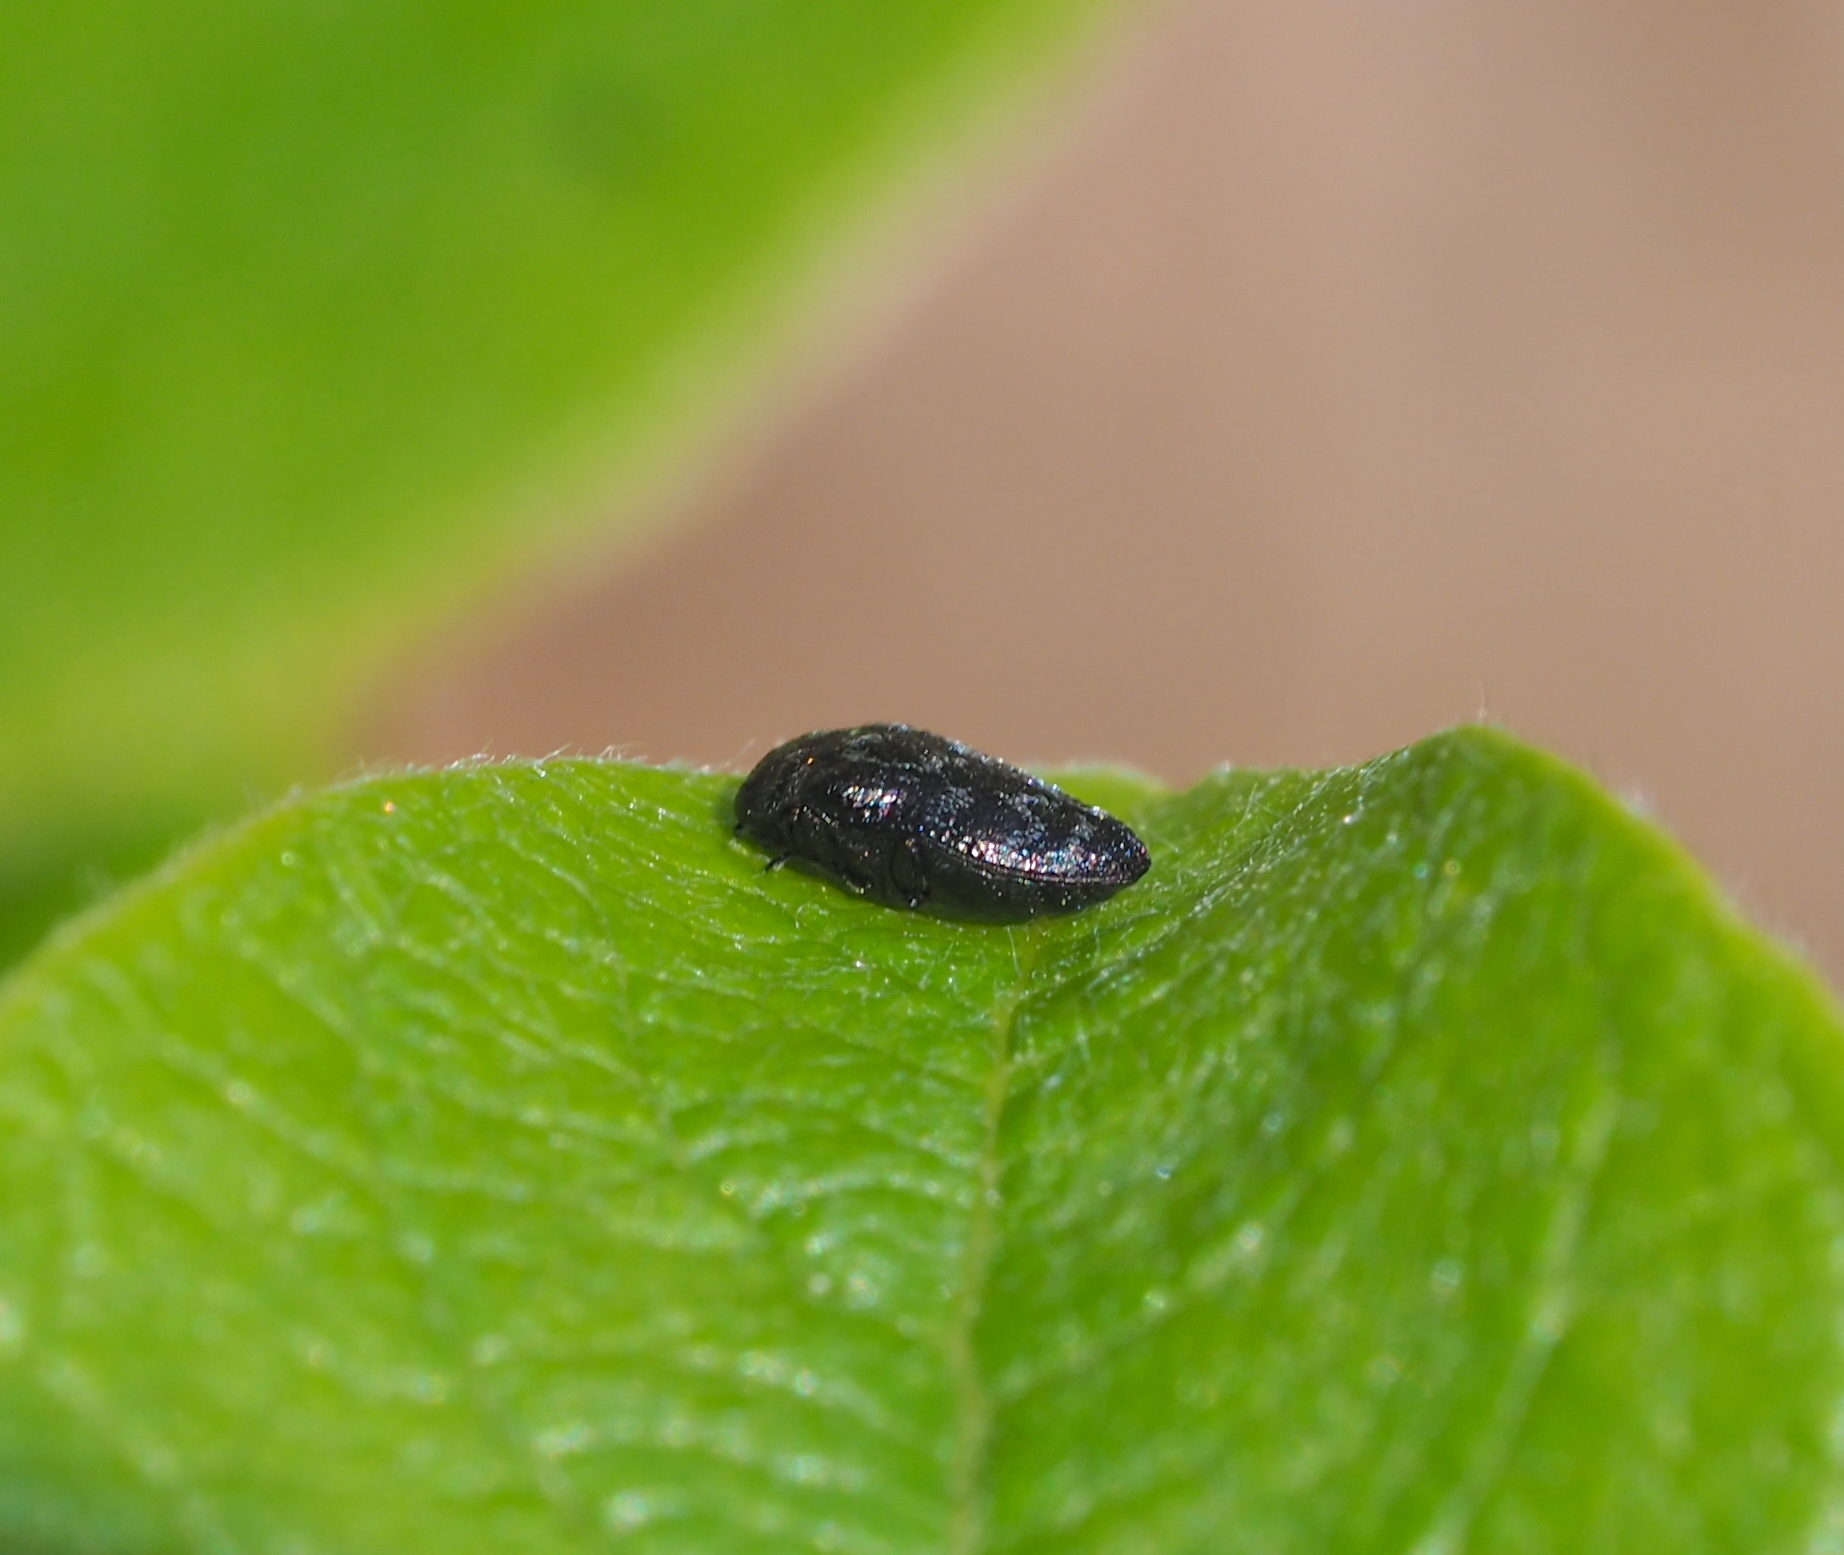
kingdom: Animalia
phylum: Arthropoda
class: Insecta
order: Coleoptera
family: Buprestidae
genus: Trachys
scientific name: Trachys minutus
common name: Metallic wood-boring beetle
